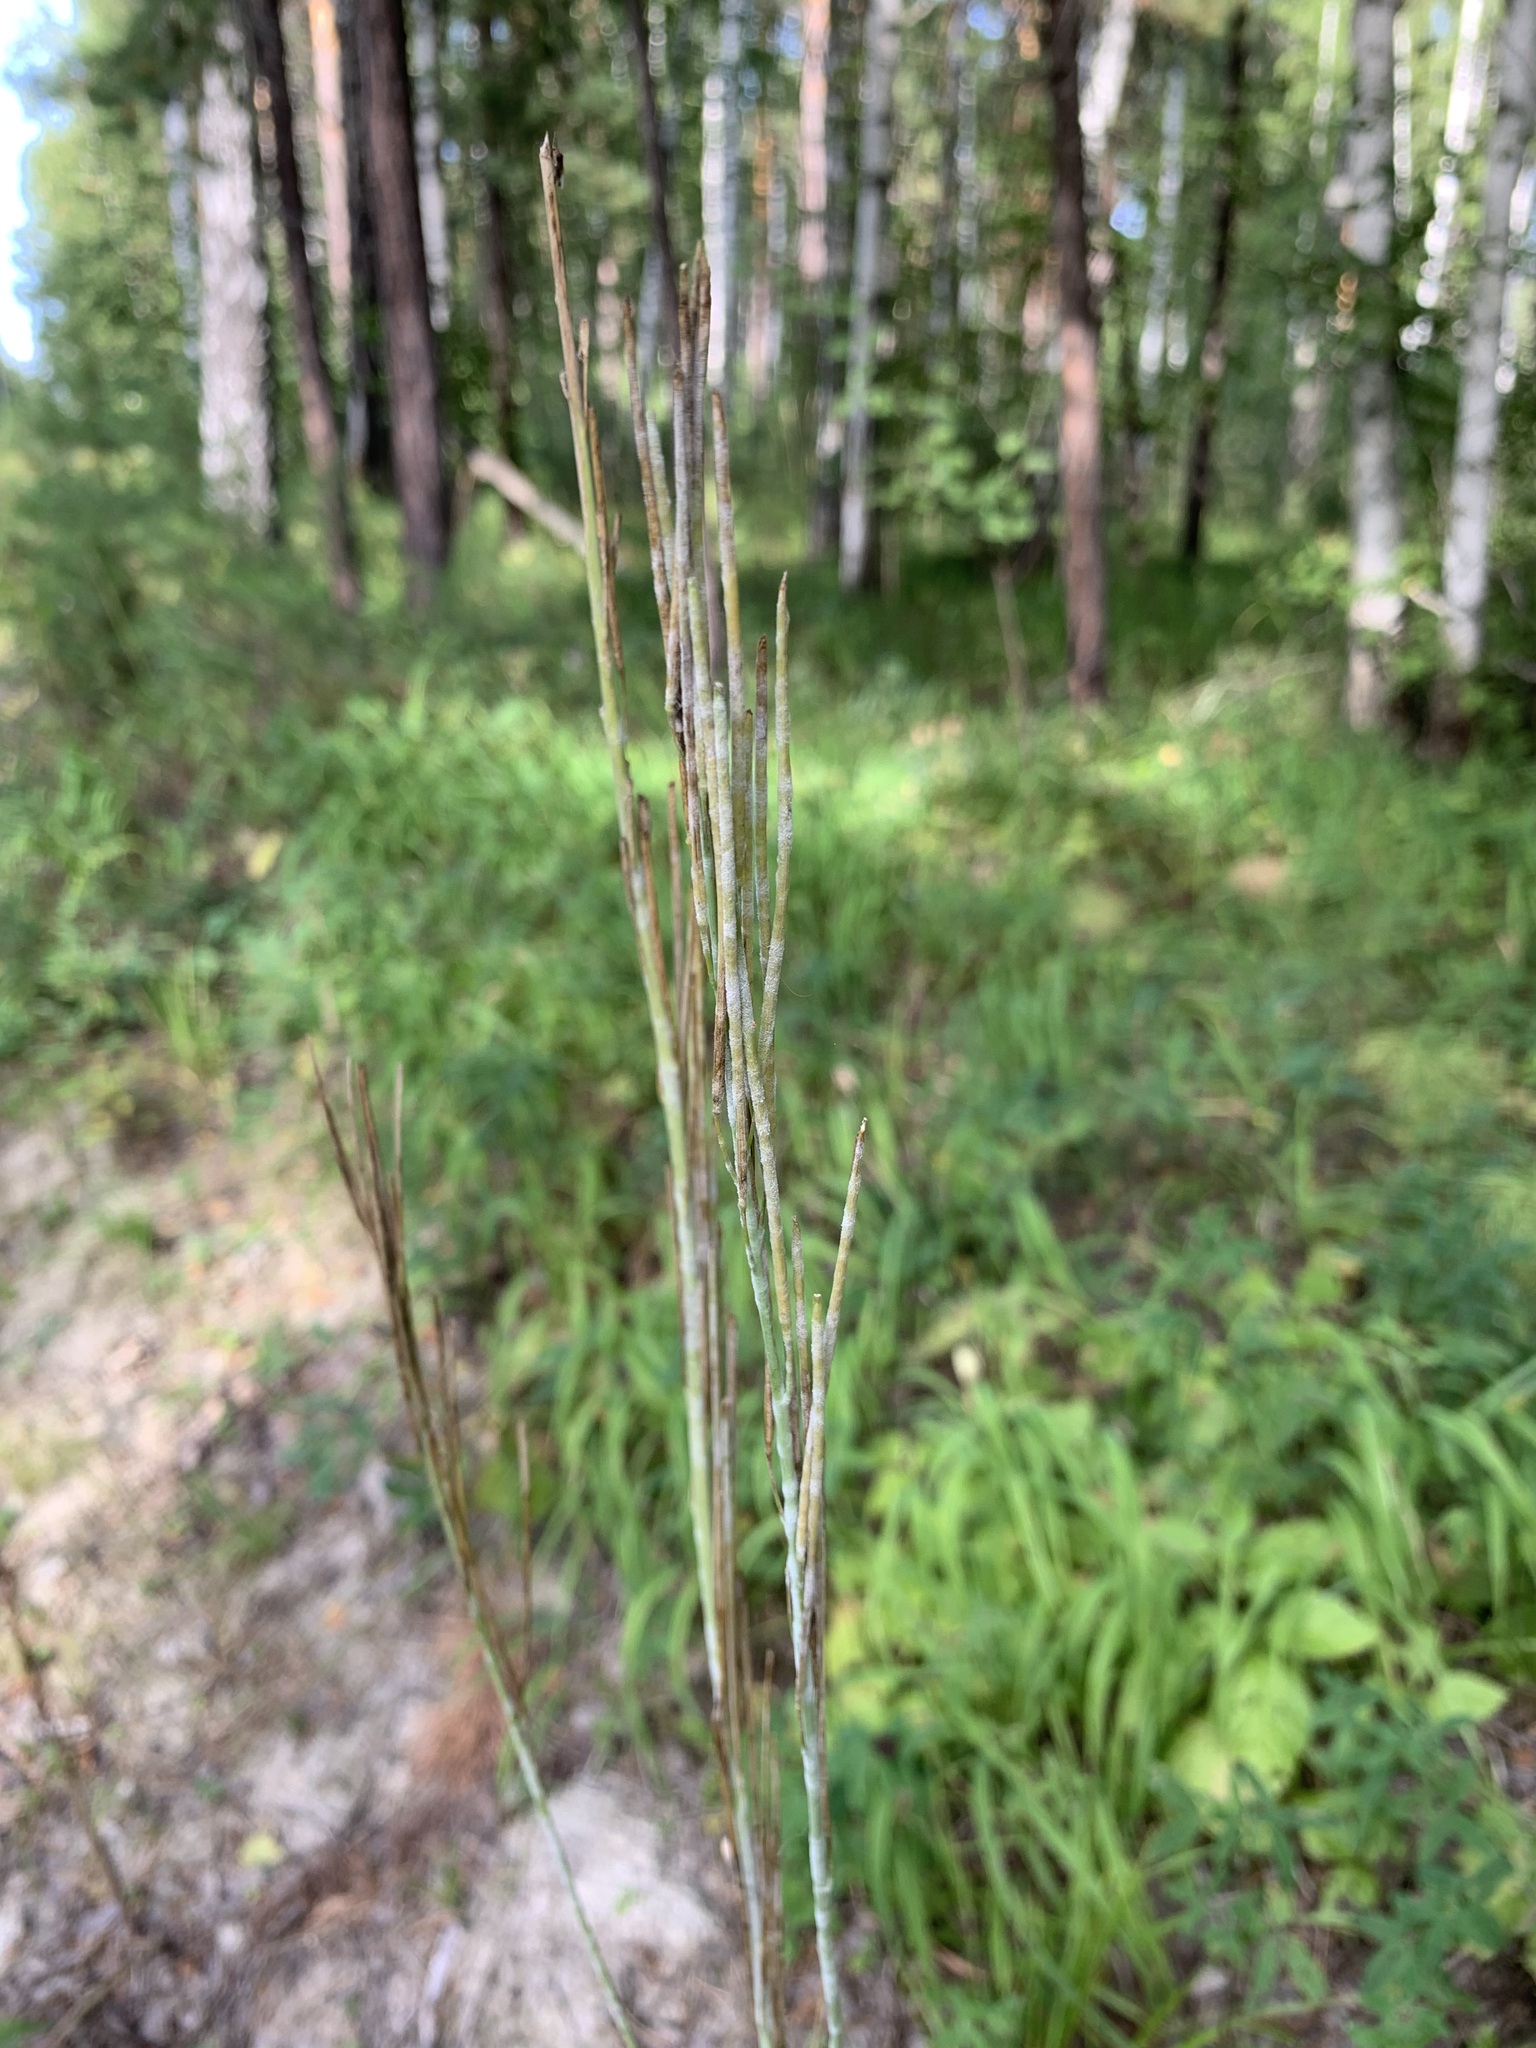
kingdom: Plantae
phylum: Tracheophyta
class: Magnoliopsida
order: Brassicales
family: Brassicaceae
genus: Turritis
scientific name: Turritis glabra
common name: Tower rockcress
